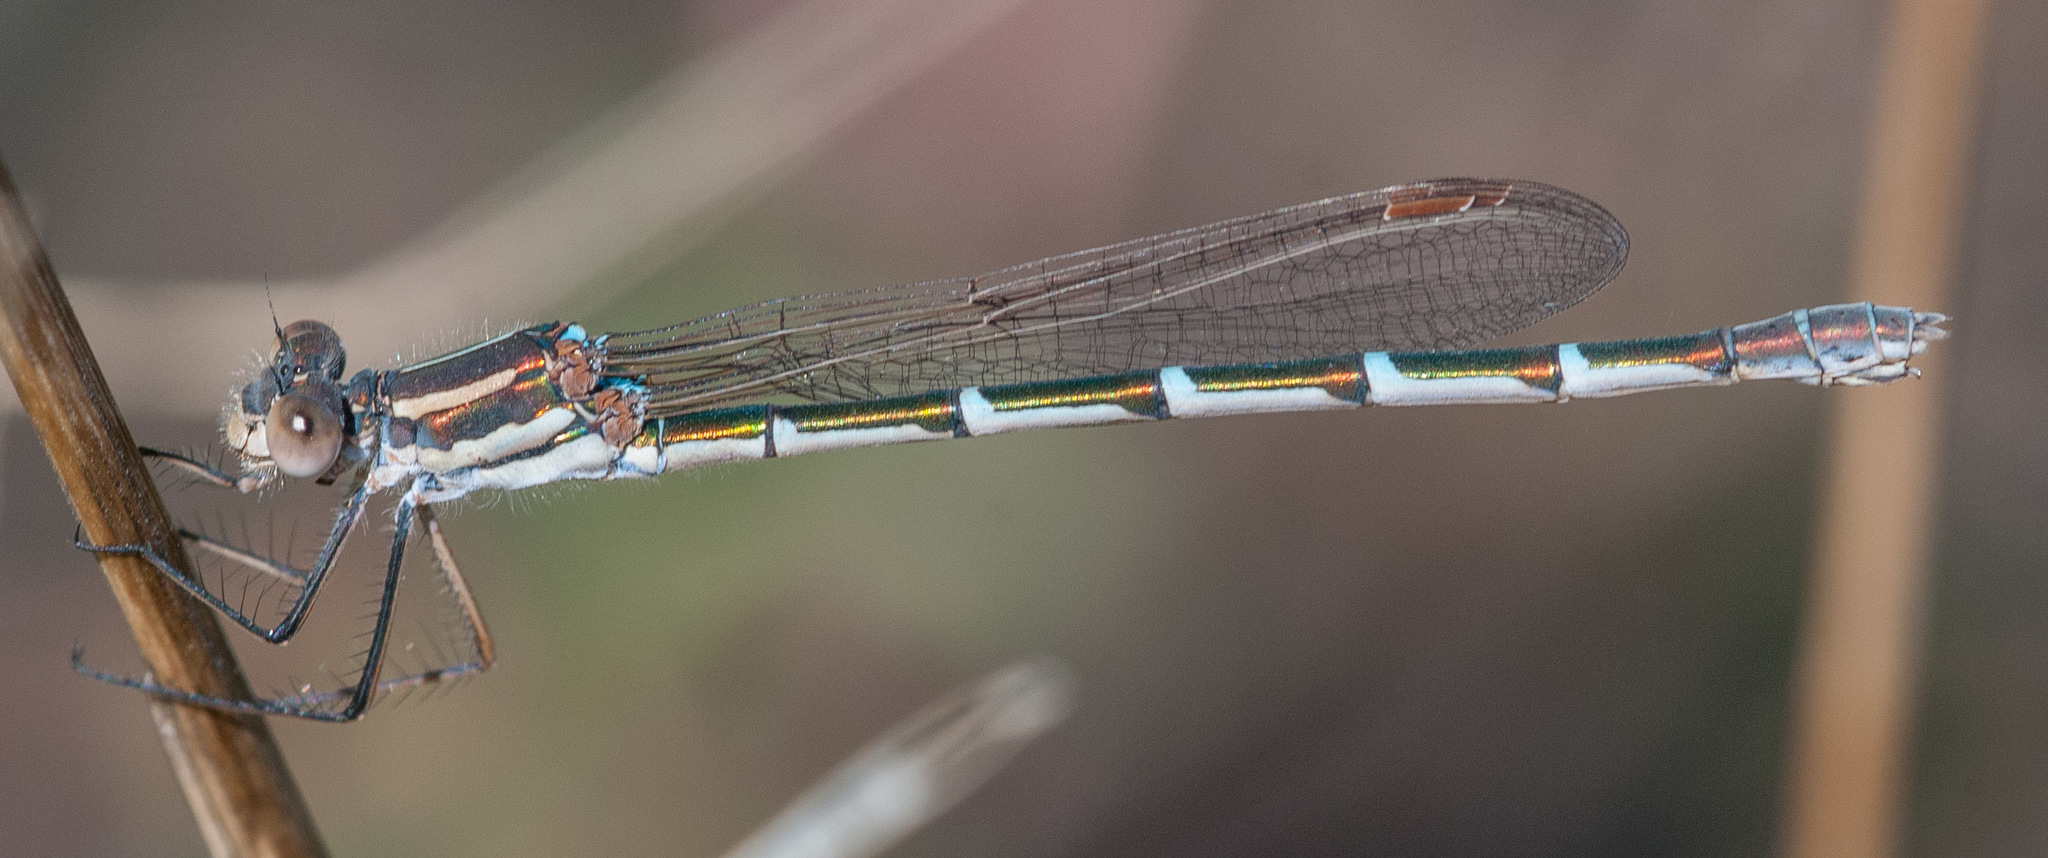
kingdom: Animalia
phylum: Arthropoda
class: Insecta
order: Odonata
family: Lestidae
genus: Austrolestes
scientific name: Austrolestes annulosus
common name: Blue ringtail
